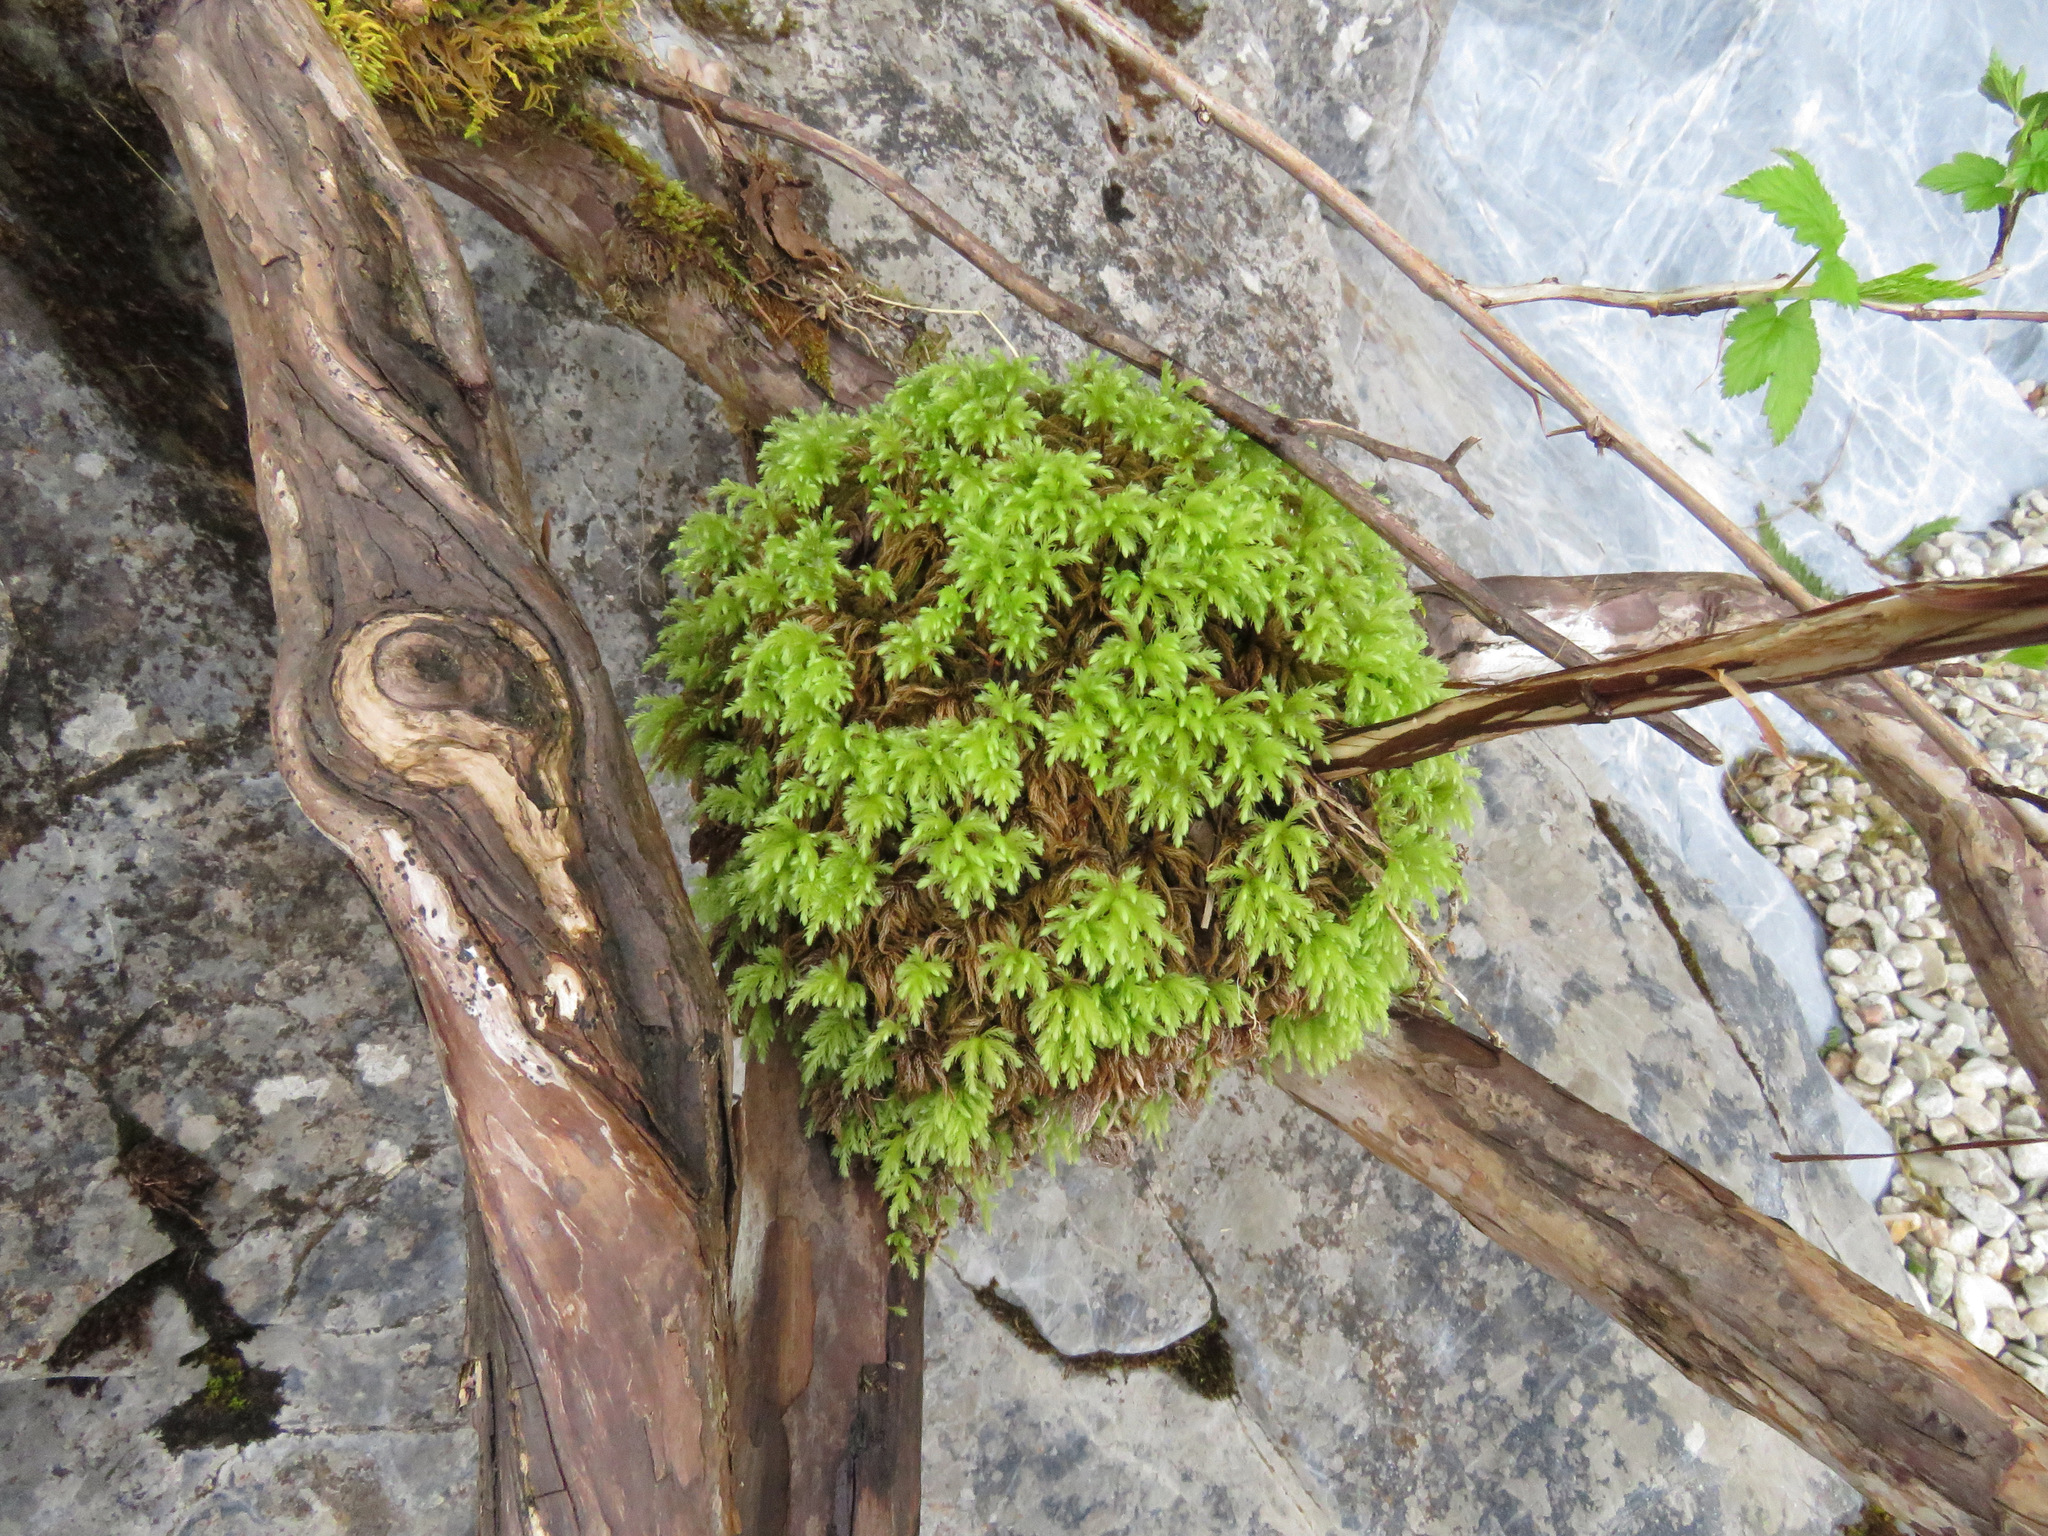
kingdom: Plantae
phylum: Bryophyta
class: Bryopsida
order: Bryales
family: Mniaceae
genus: Leucolepis
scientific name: Leucolepis acanthoneura
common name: Leucolepis umbrella moss
